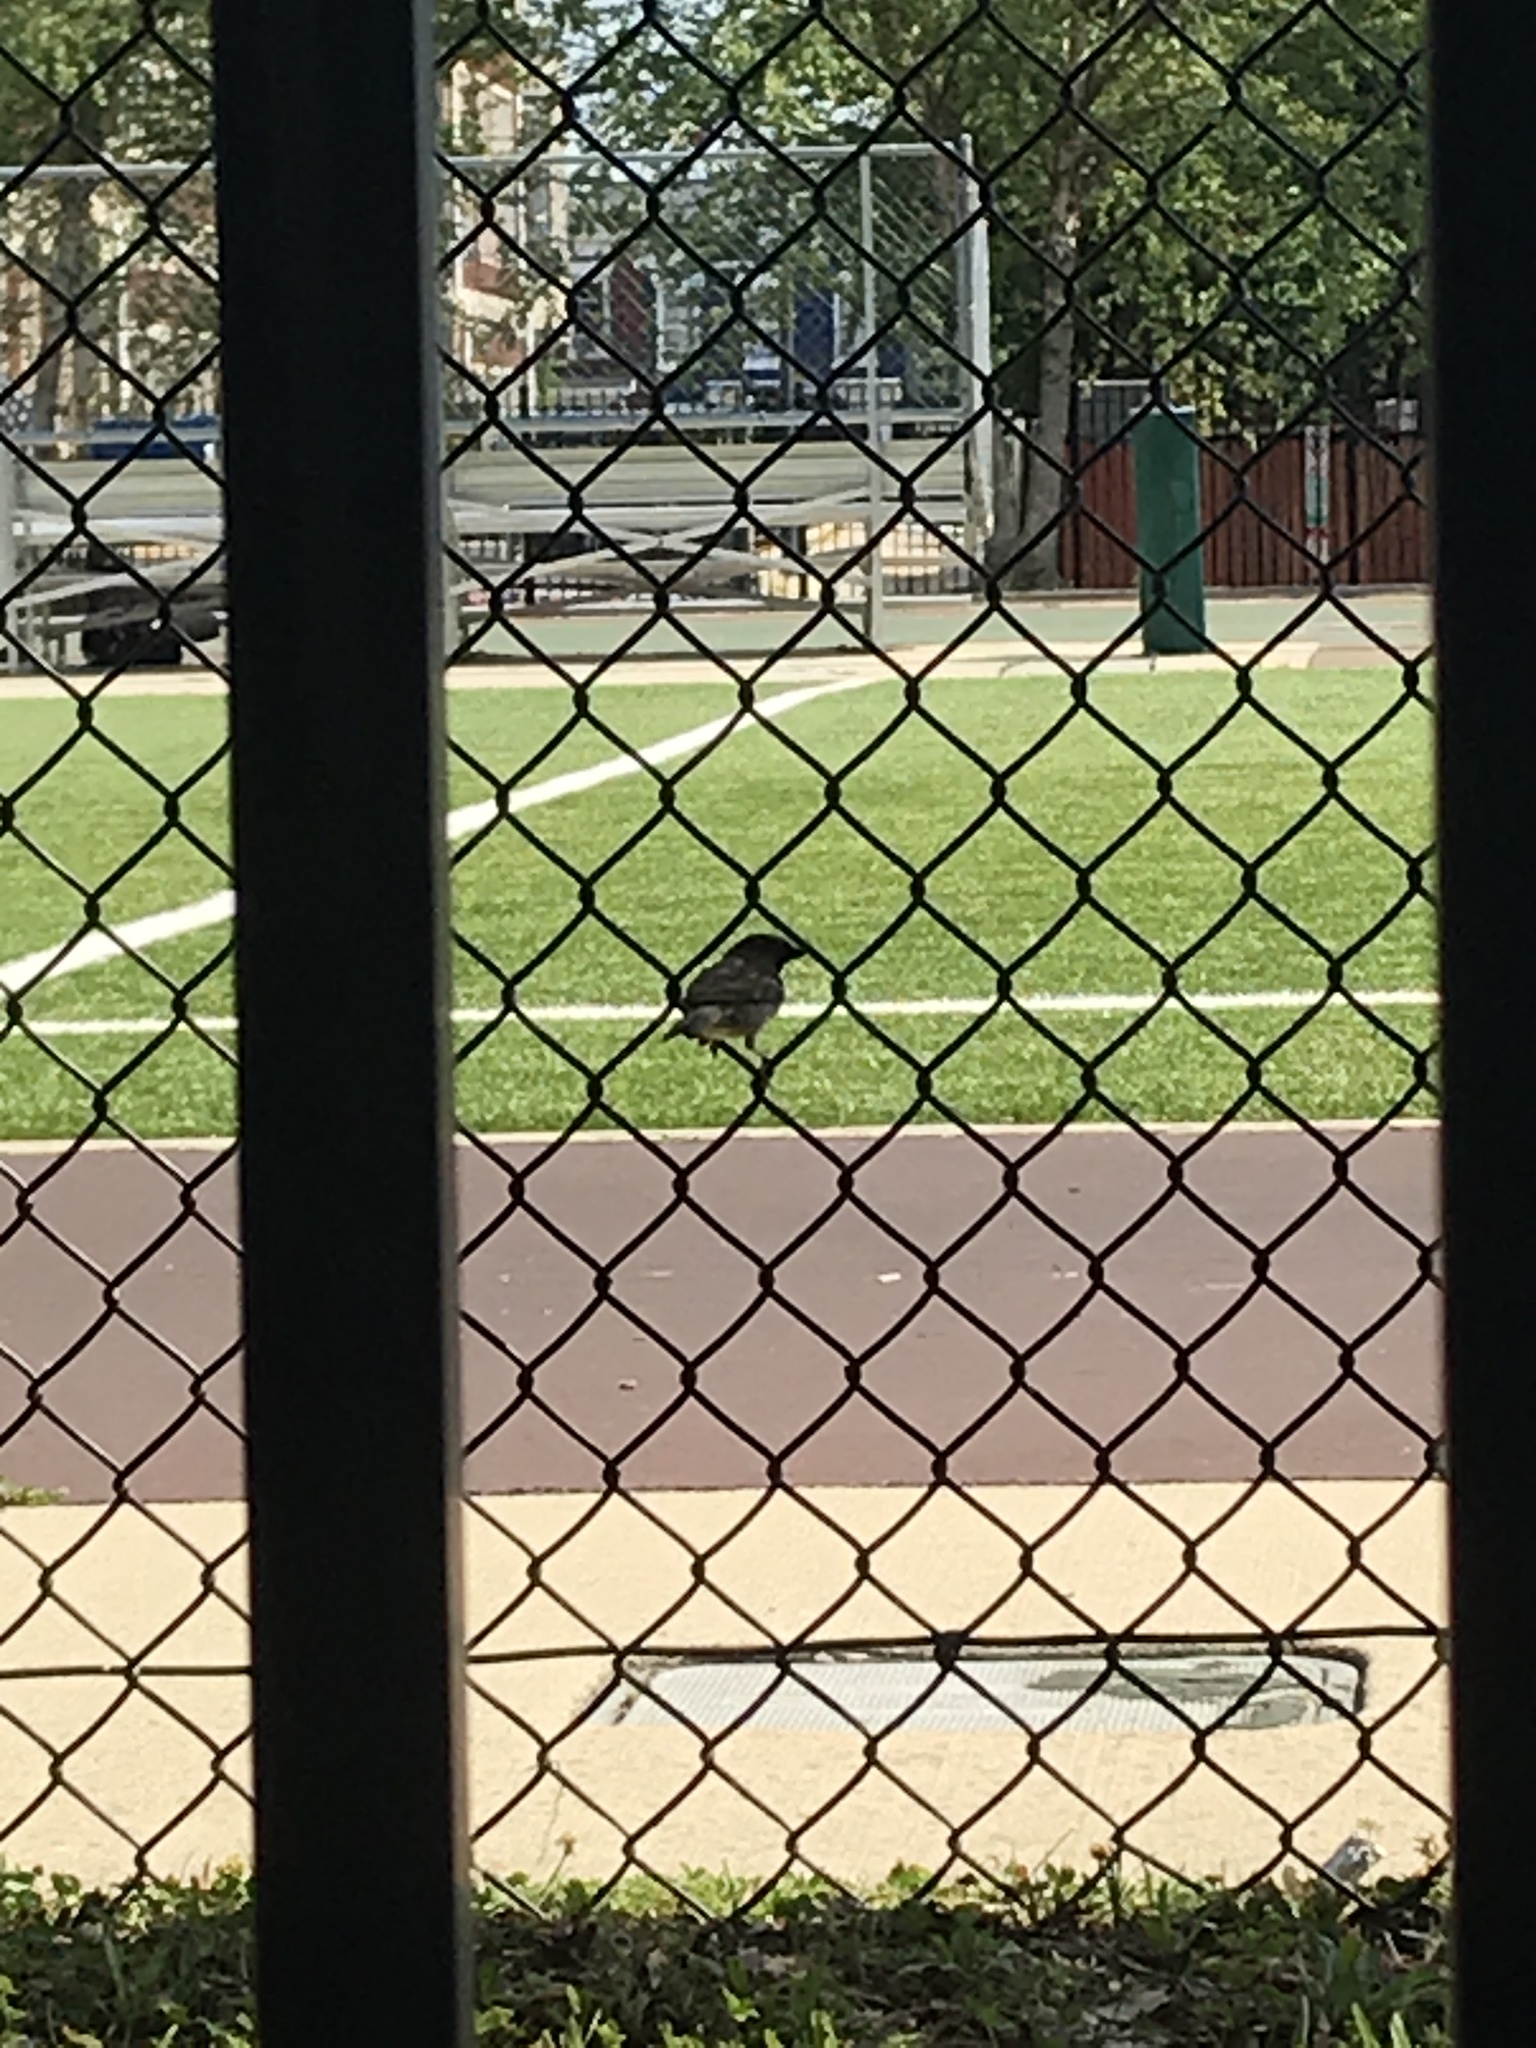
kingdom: Animalia
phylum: Chordata
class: Aves
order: Passeriformes
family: Passeridae
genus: Passer
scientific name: Passer domesticus
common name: House sparrow
